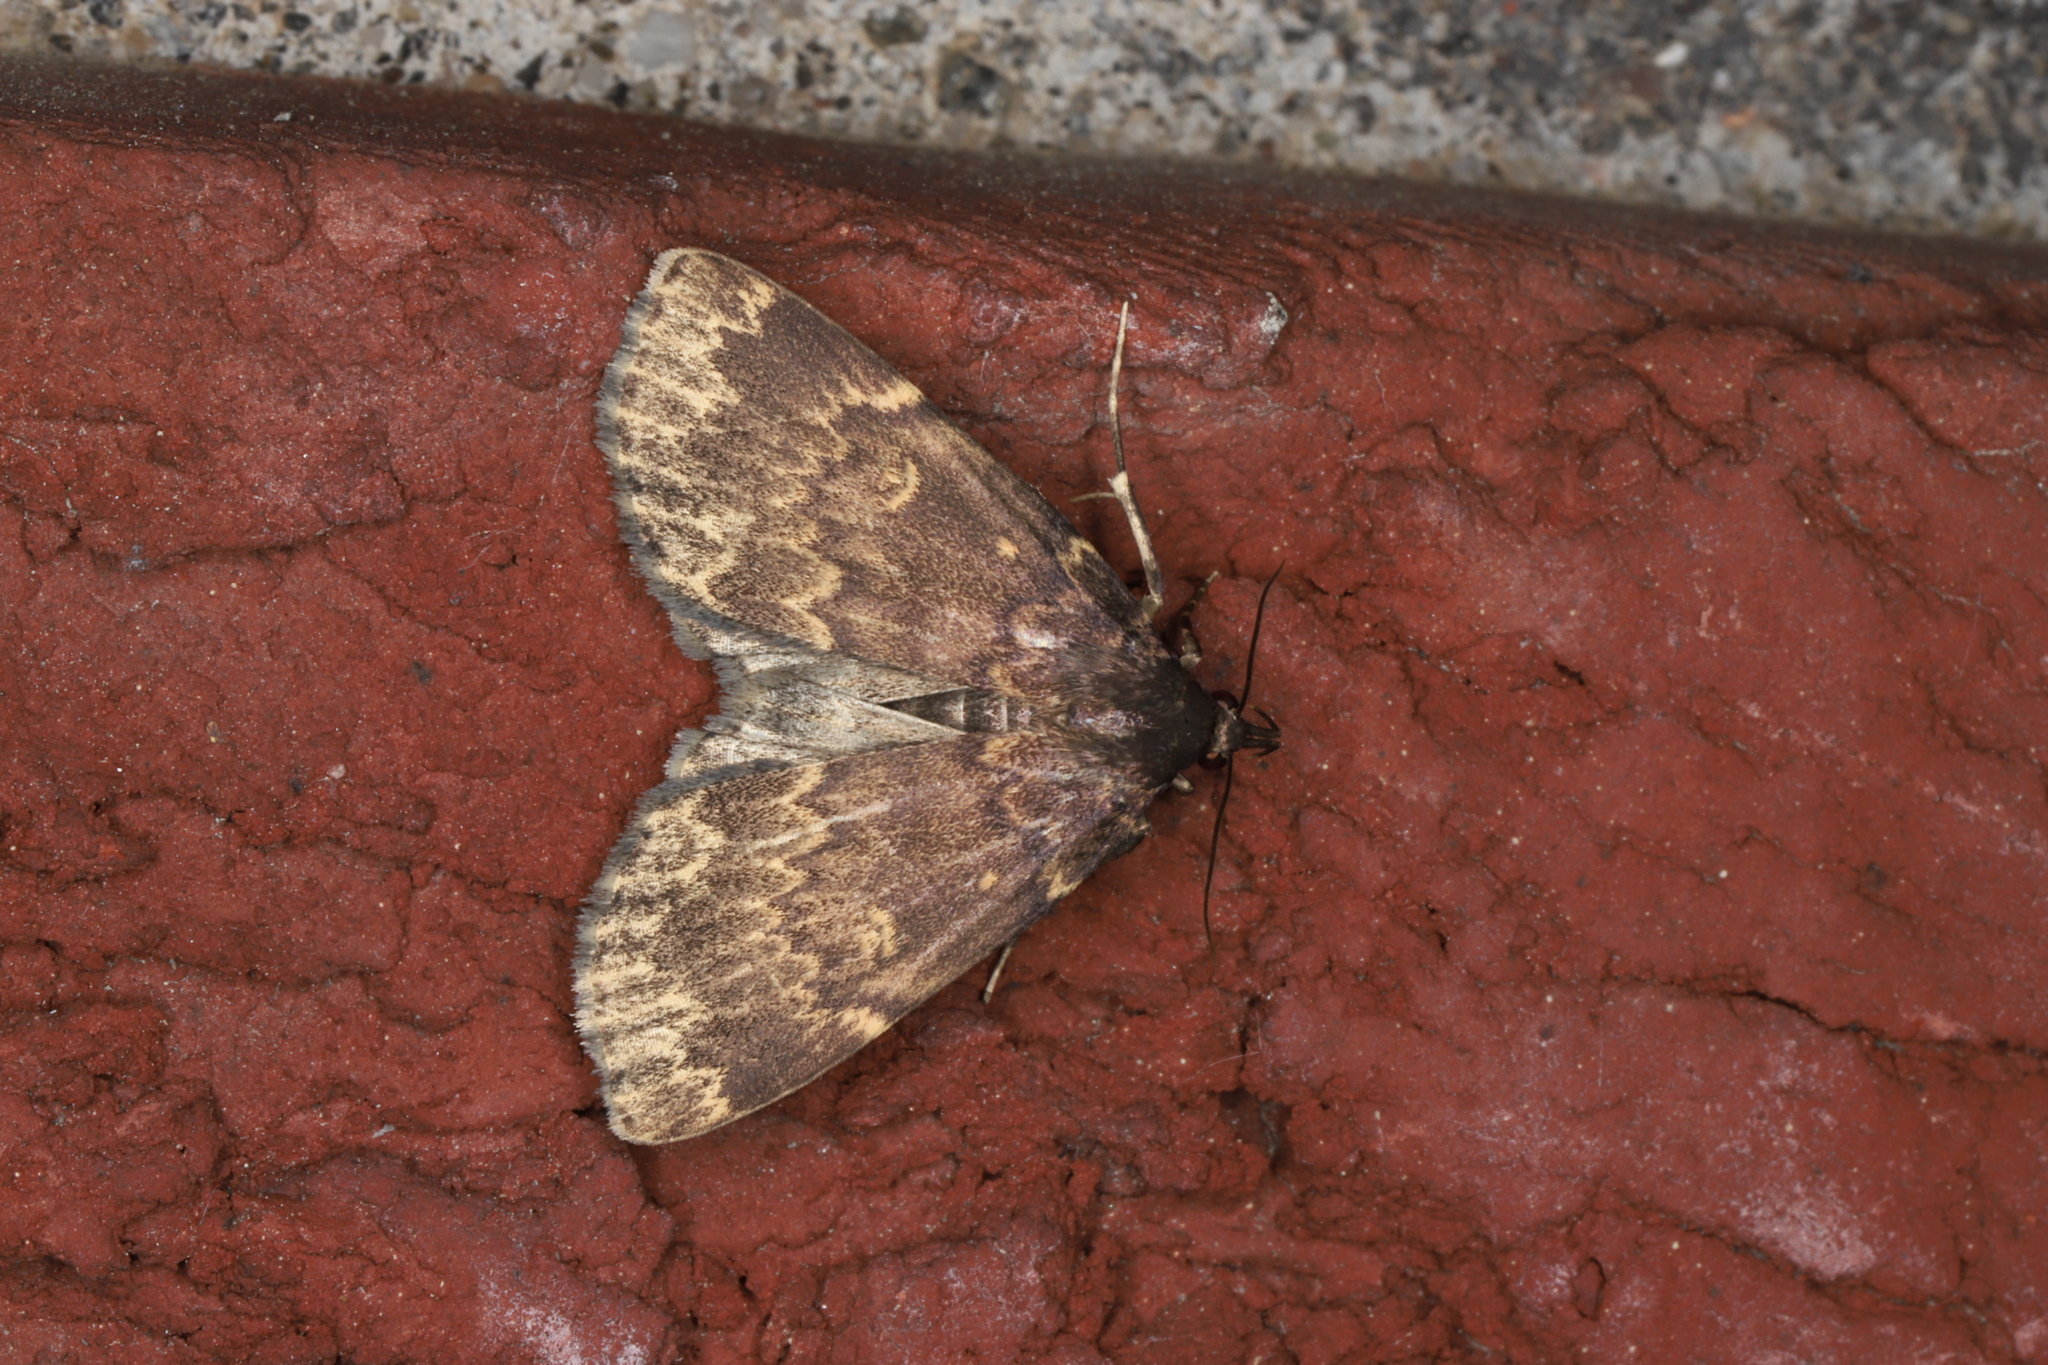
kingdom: Animalia
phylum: Arthropoda
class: Insecta
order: Lepidoptera
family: Erebidae
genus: Idia
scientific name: Idia lubricalis
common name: Twin-striped tabby
